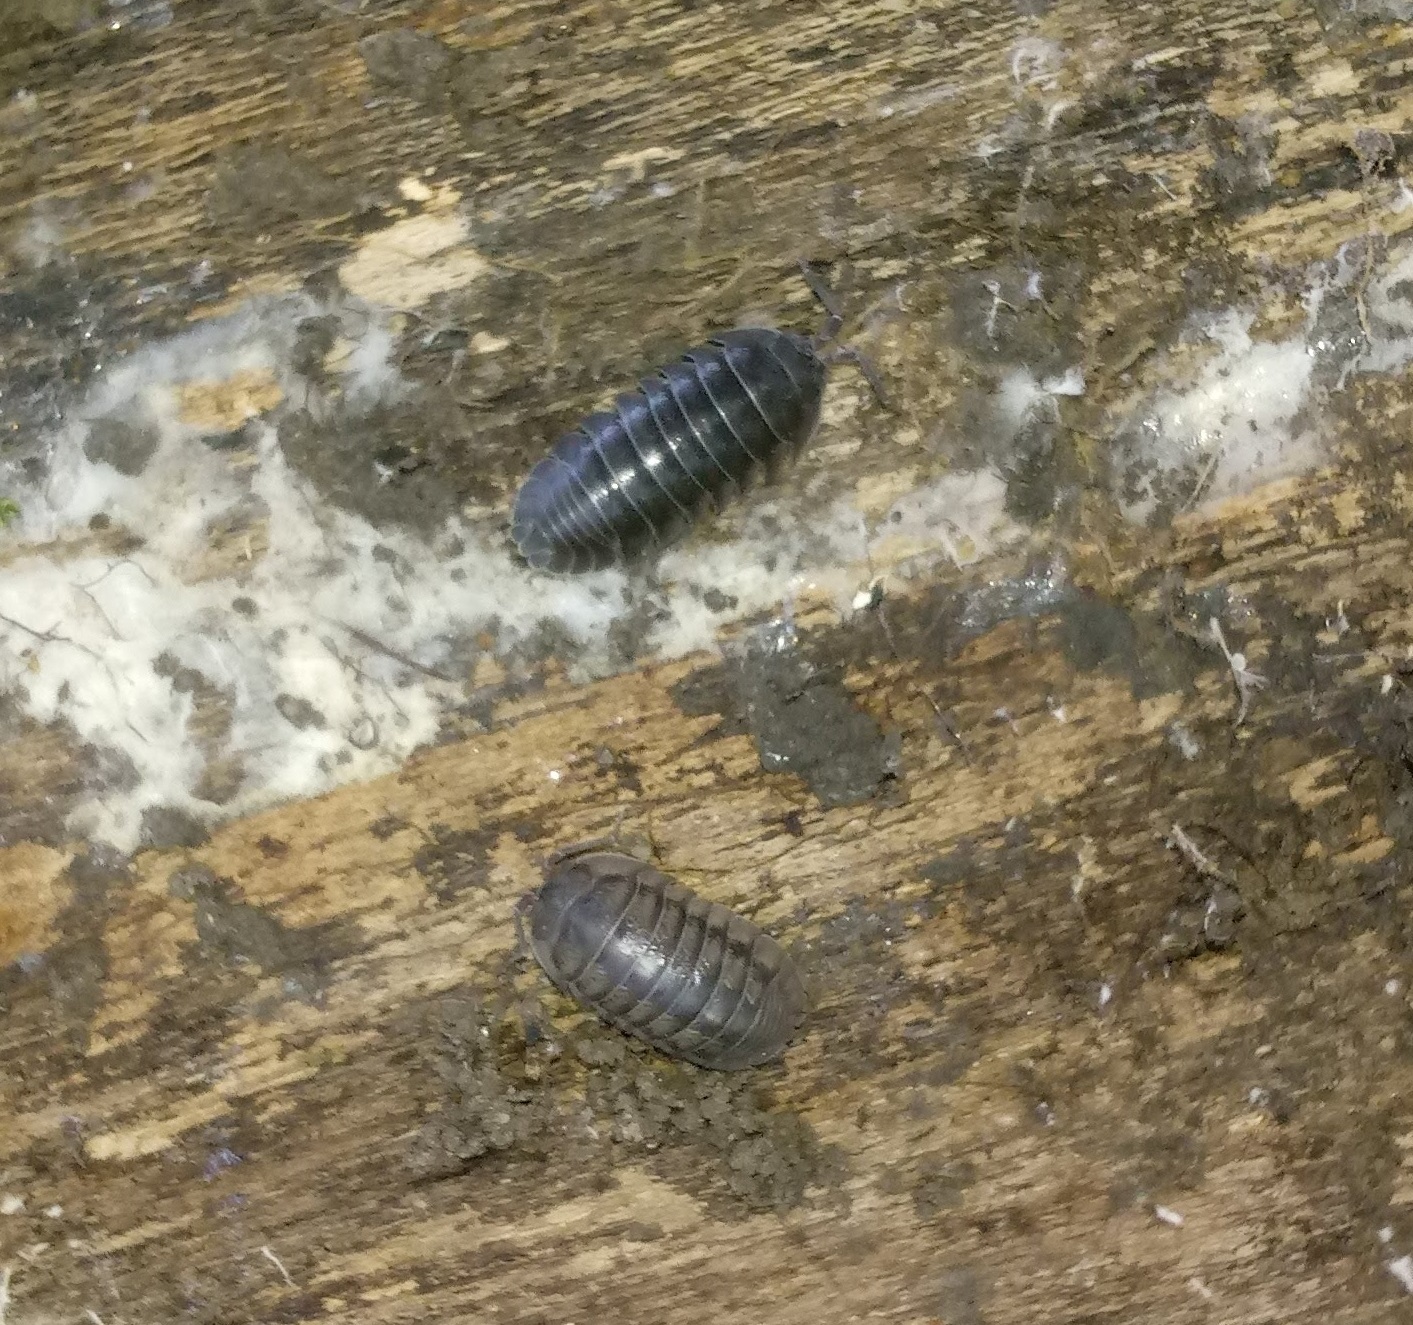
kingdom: Animalia
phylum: Arthropoda
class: Malacostraca
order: Isopoda
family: Armadillidiidae
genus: Armadillidium
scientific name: Armadillidium nasatum
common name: Isopod
